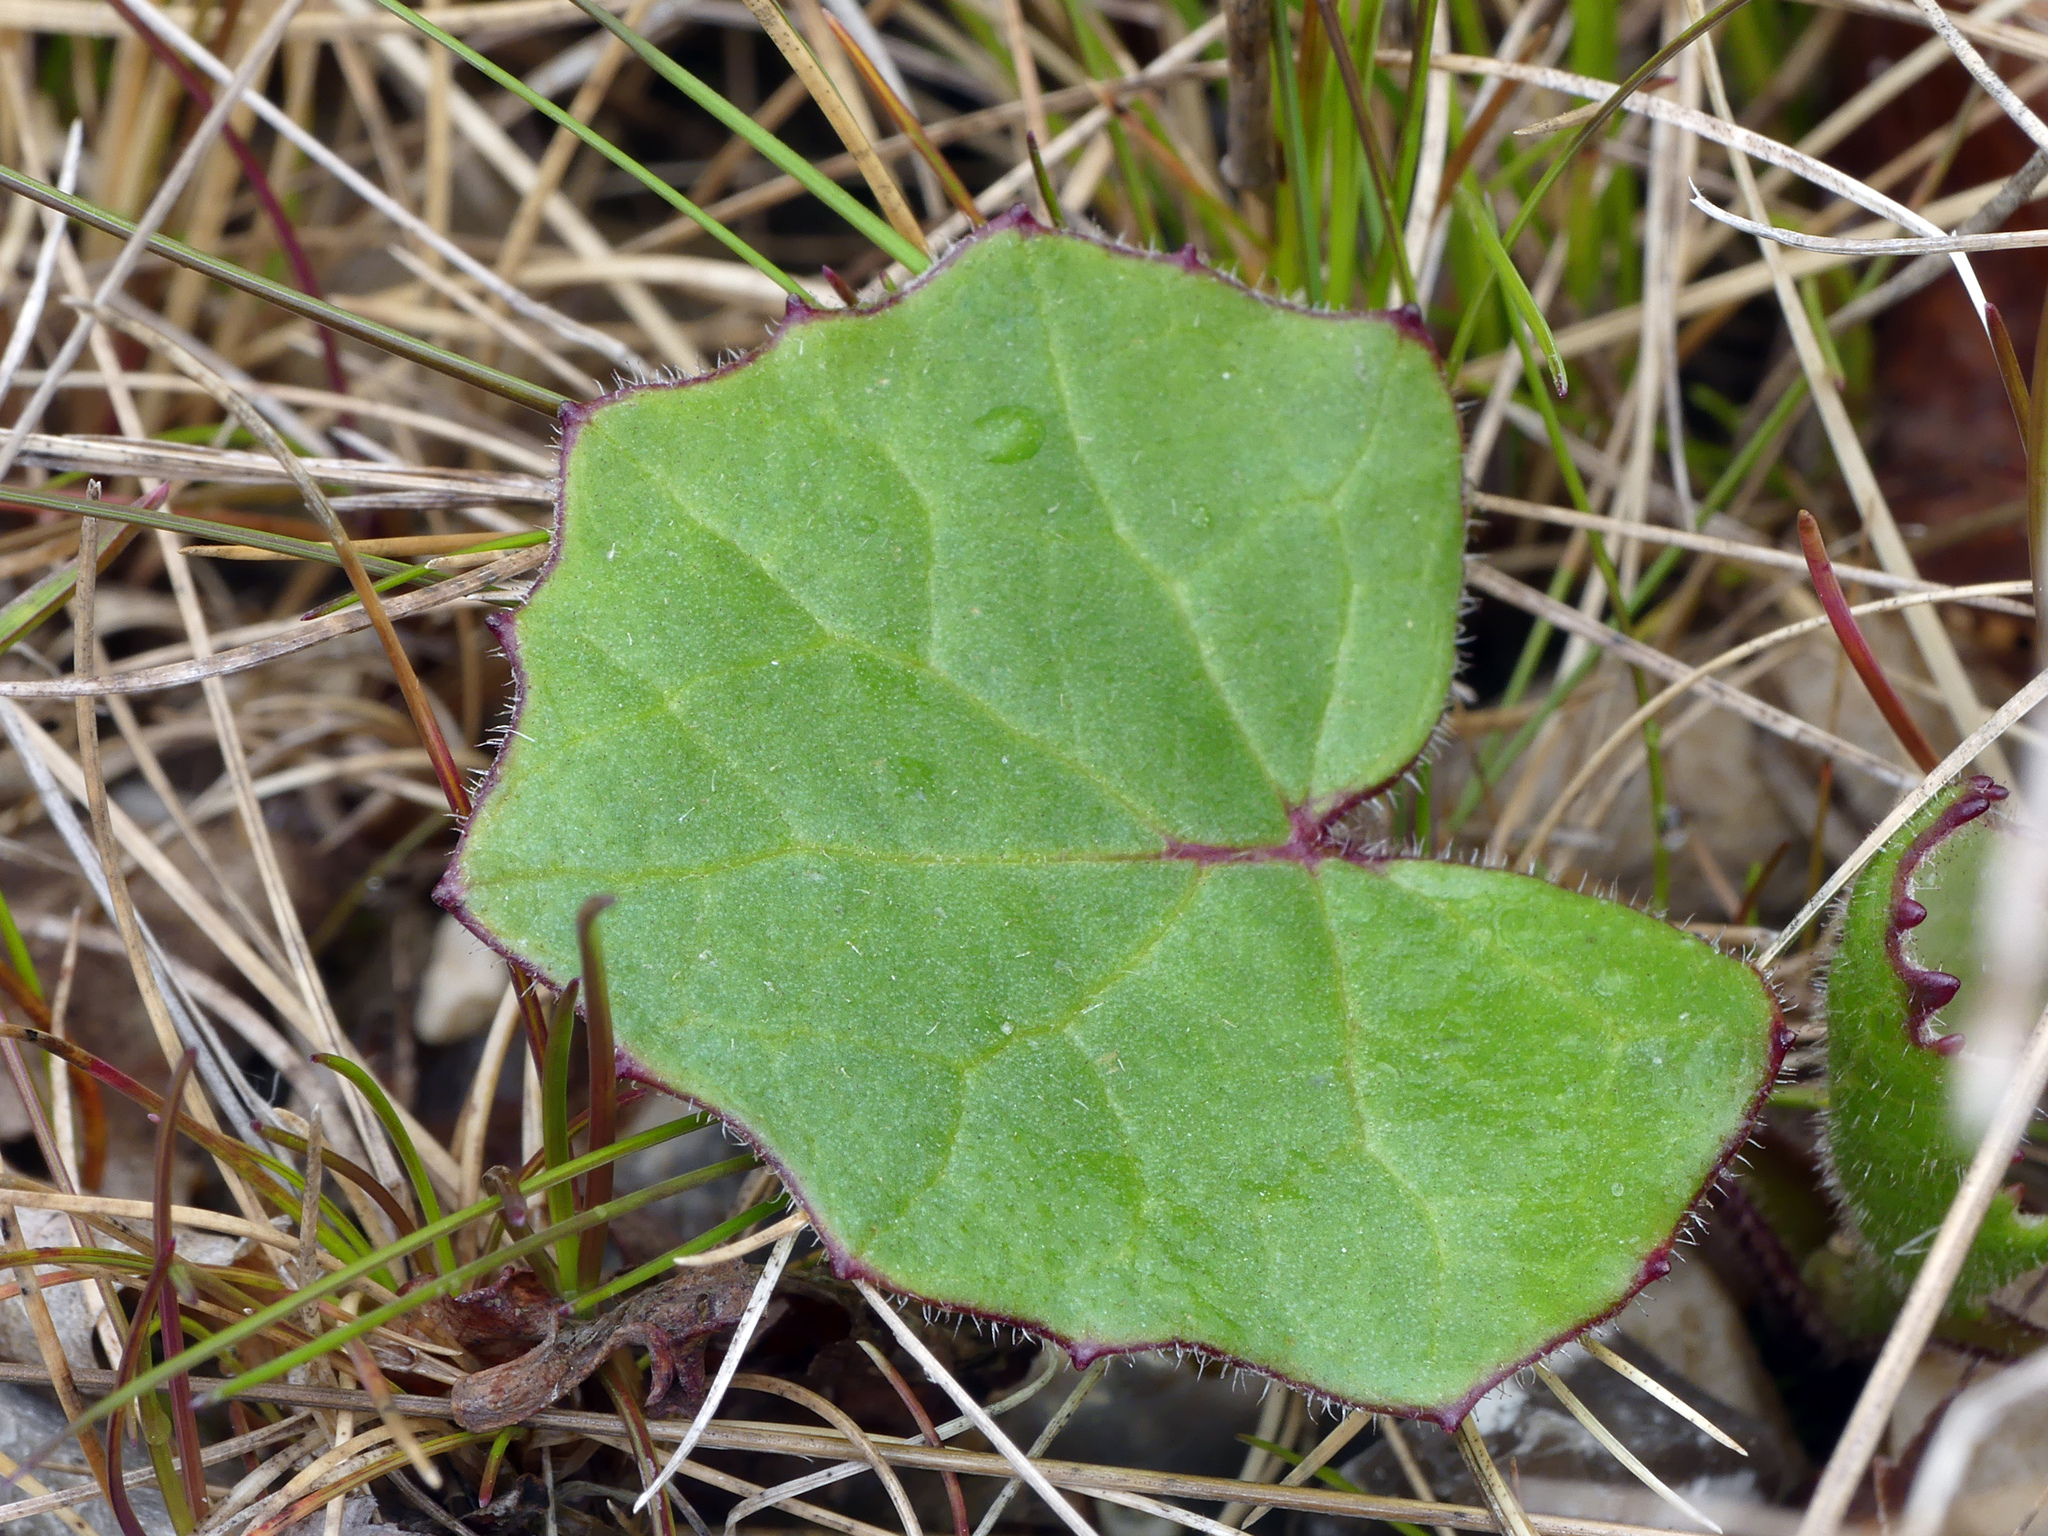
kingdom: Plantae
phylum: Tracheophyta
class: Magnoliopsida
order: Asterales
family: Asteraceae
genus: Tussilago
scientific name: Tussilago farfara
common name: Coltsfoot
